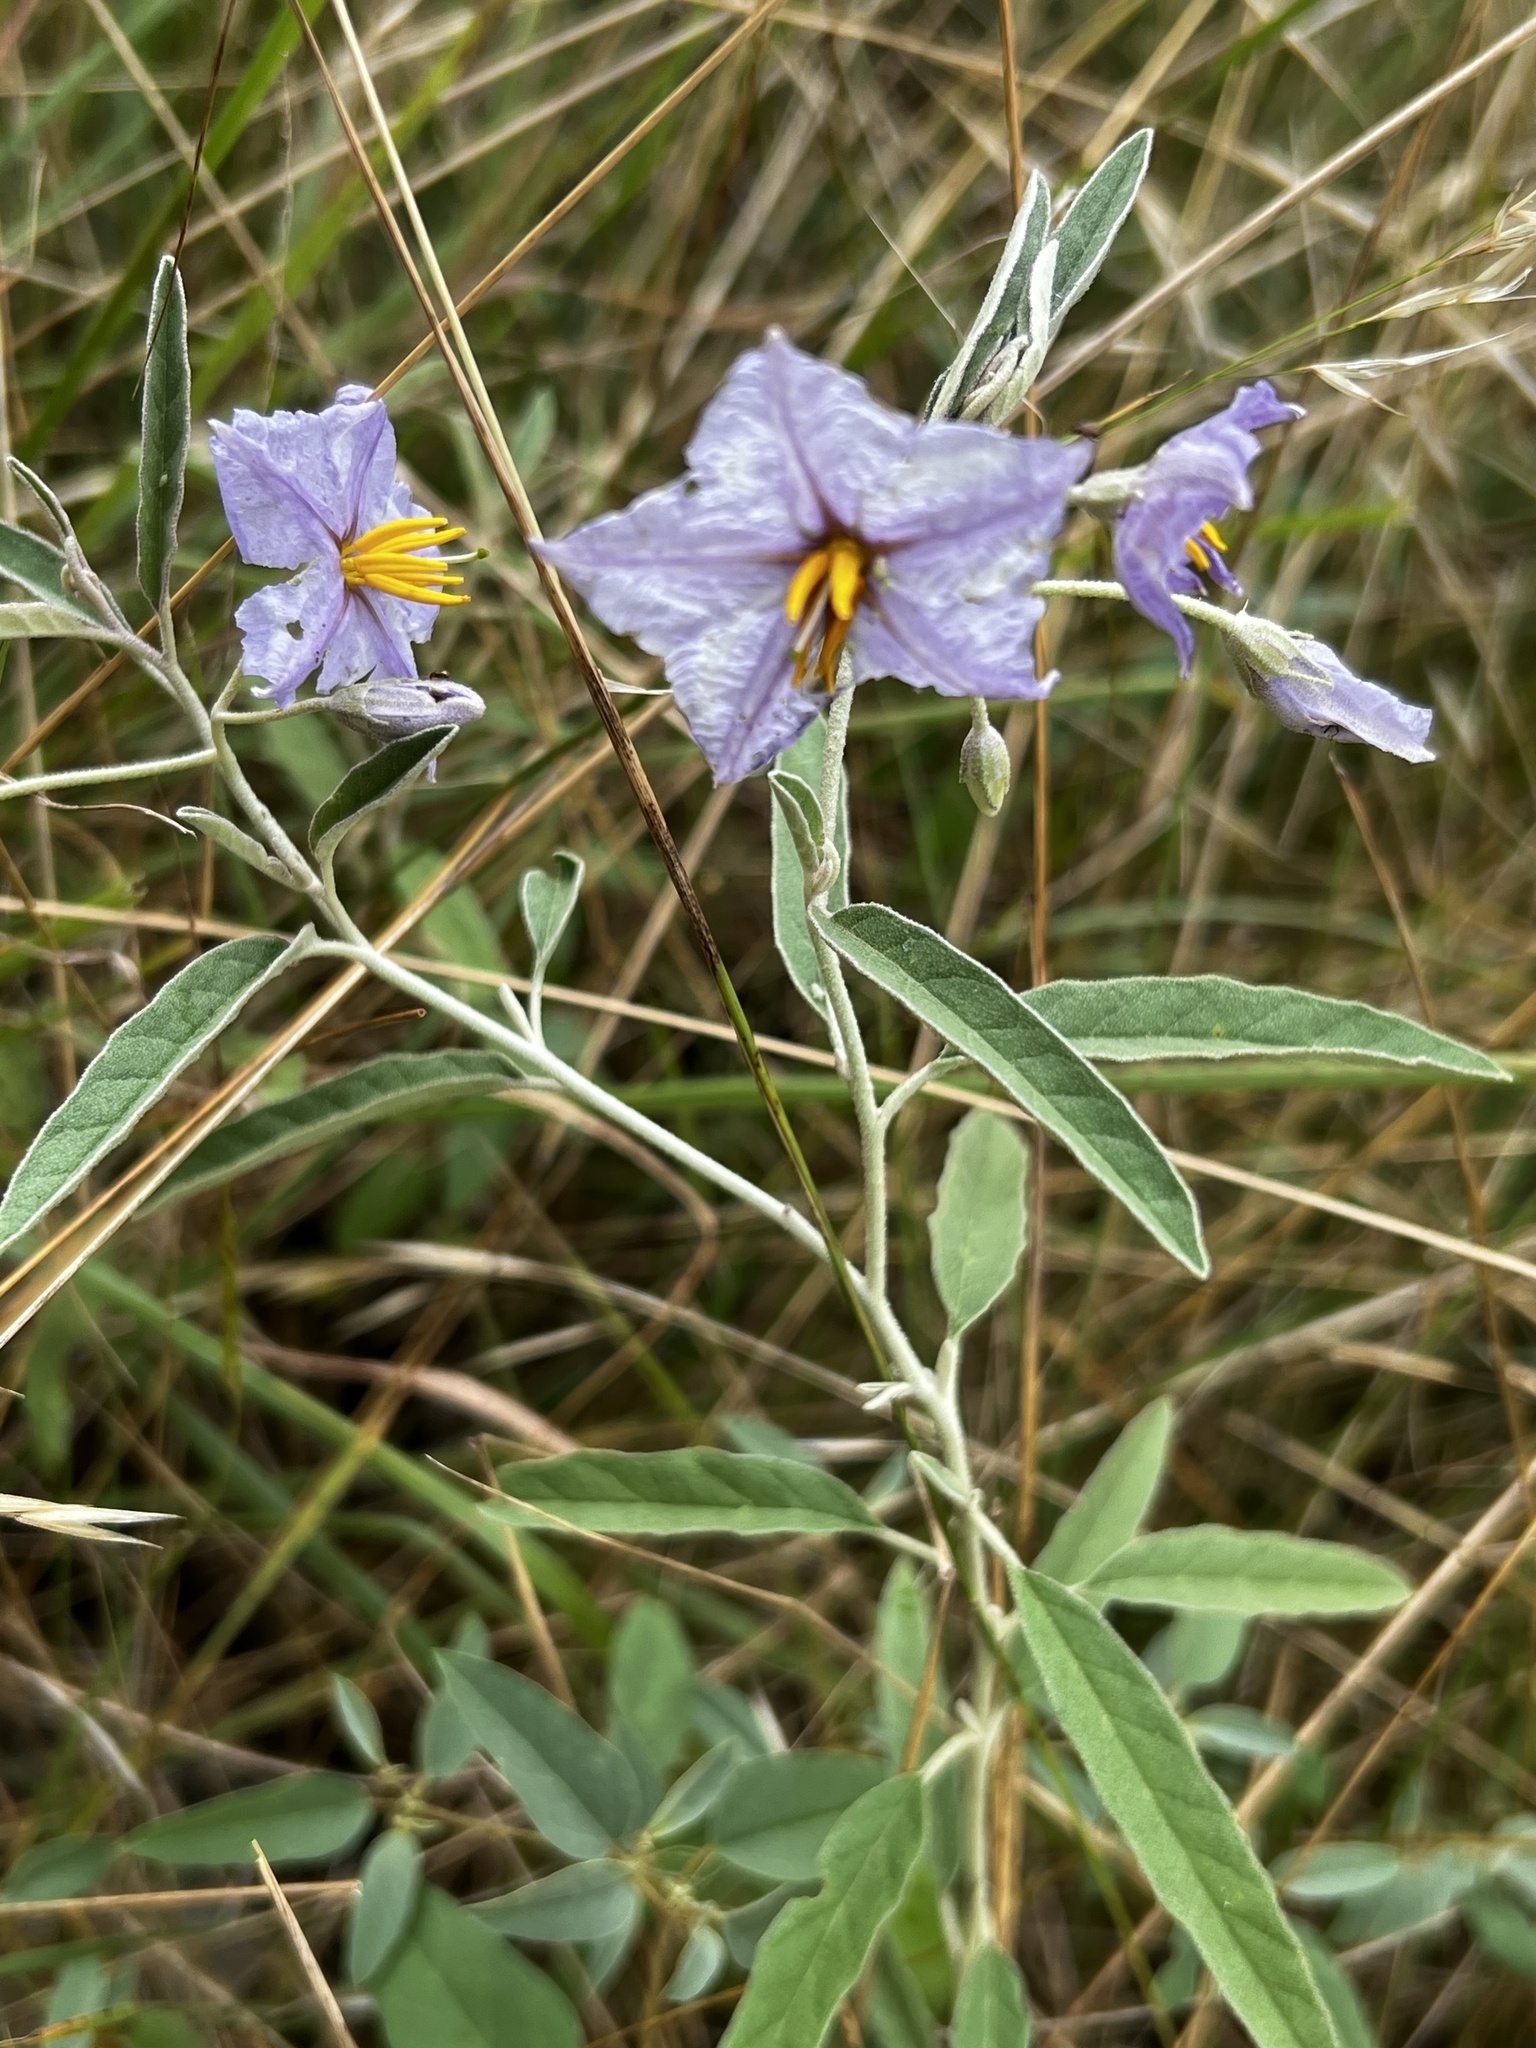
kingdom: Plantae
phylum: Tracheophyta
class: Magnoliopsida
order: Solanales
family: Solanaceae
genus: Solanum
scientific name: Solanum elaeagnifolium
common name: Silverleaf nightshade
